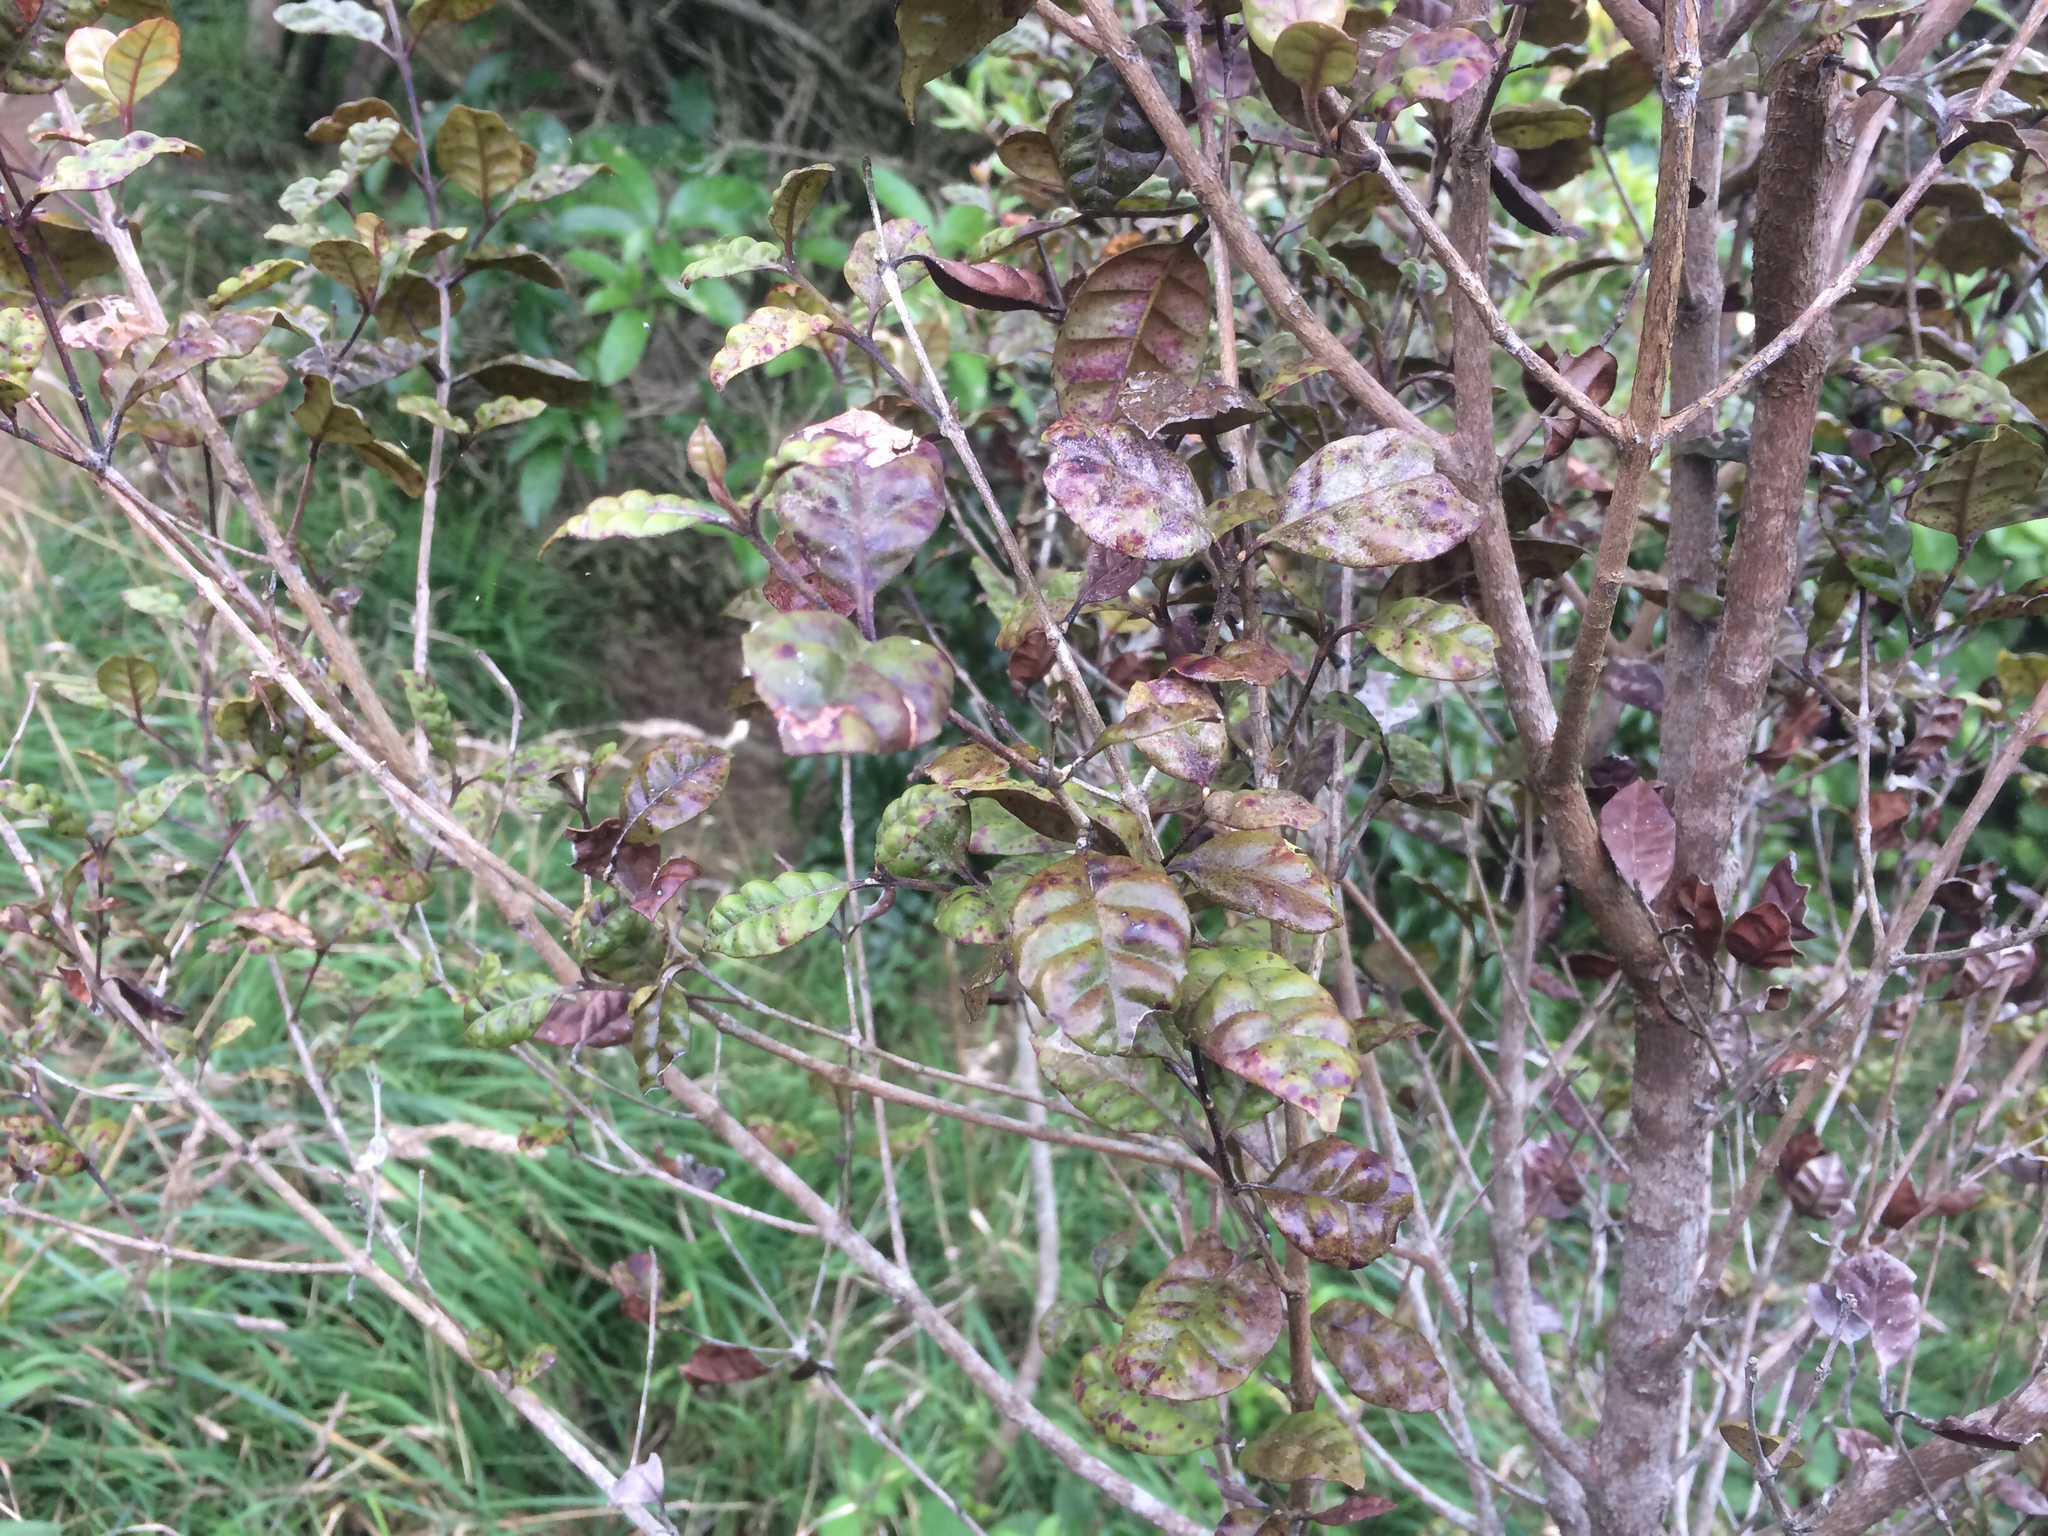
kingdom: Plantae
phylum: Tracheophyta
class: Magnoliopsida
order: Myrtales
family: Myrtaceae
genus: Lophomyrtus
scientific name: Lophomyrtus bullata
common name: Rama rama
